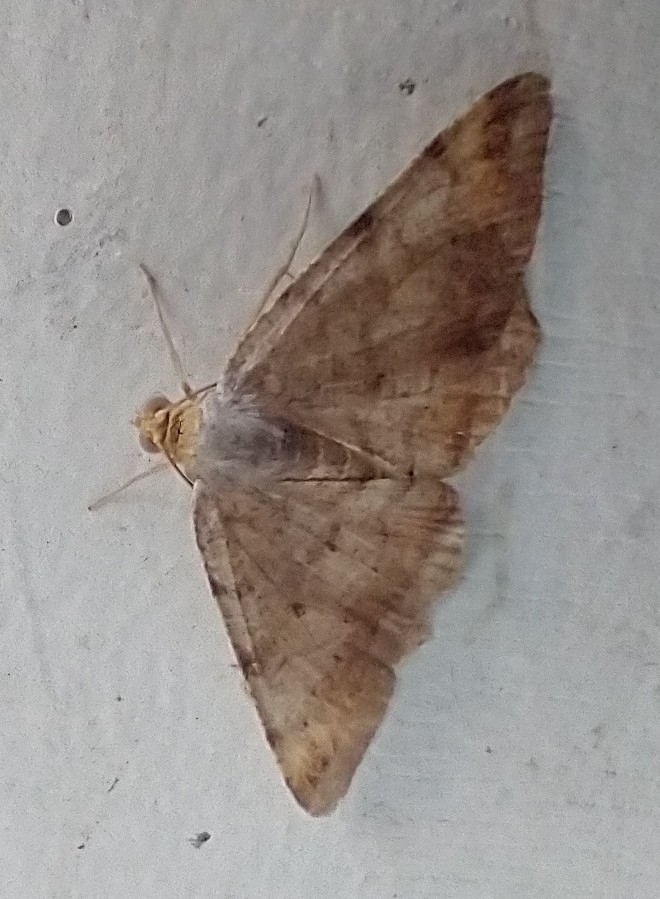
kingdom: Animalia
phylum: Arthropoda
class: Insecta
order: Lepidoptera
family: Geometridae
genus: Macaria
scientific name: Macaria liturata
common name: Tawny-barred angle
